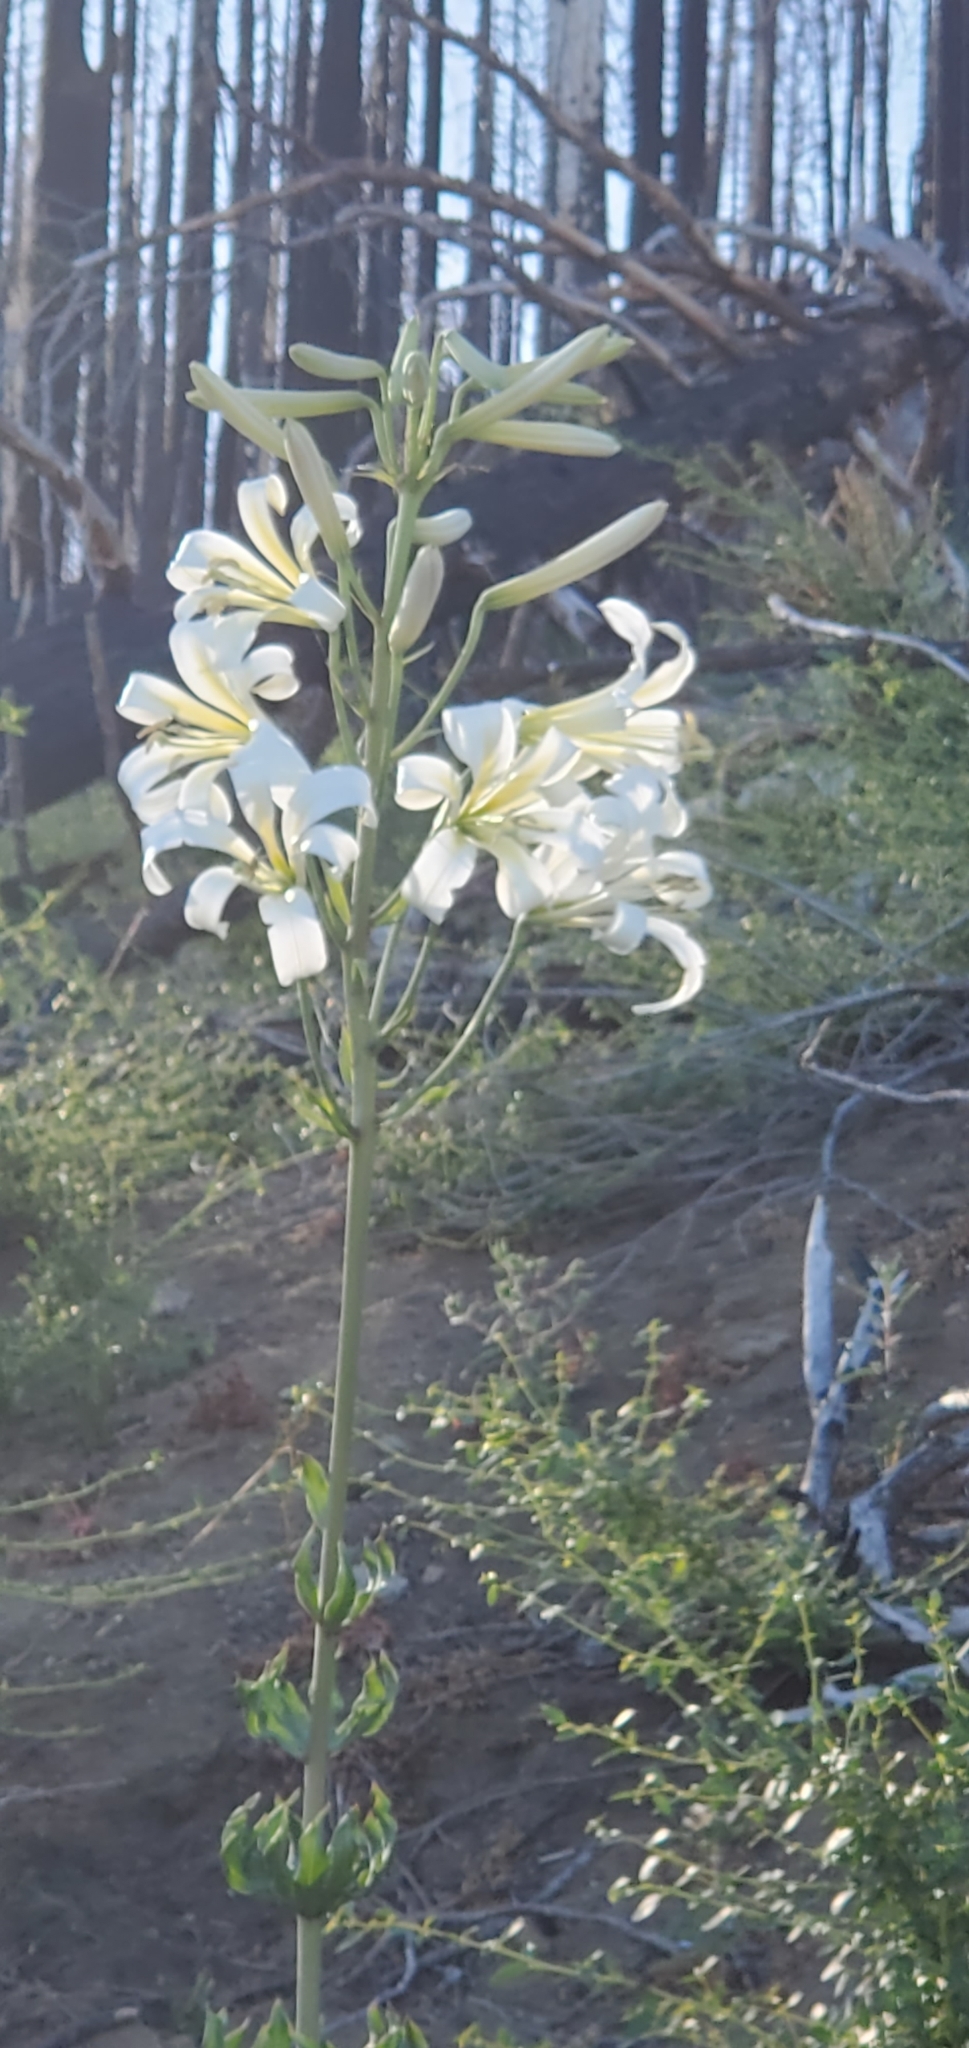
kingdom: Plantae
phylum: Tracheophyta
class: Liliopsida
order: Liliales
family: Liliaceae
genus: Lilium
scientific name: Lilium washingtonianum
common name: Washington lily
